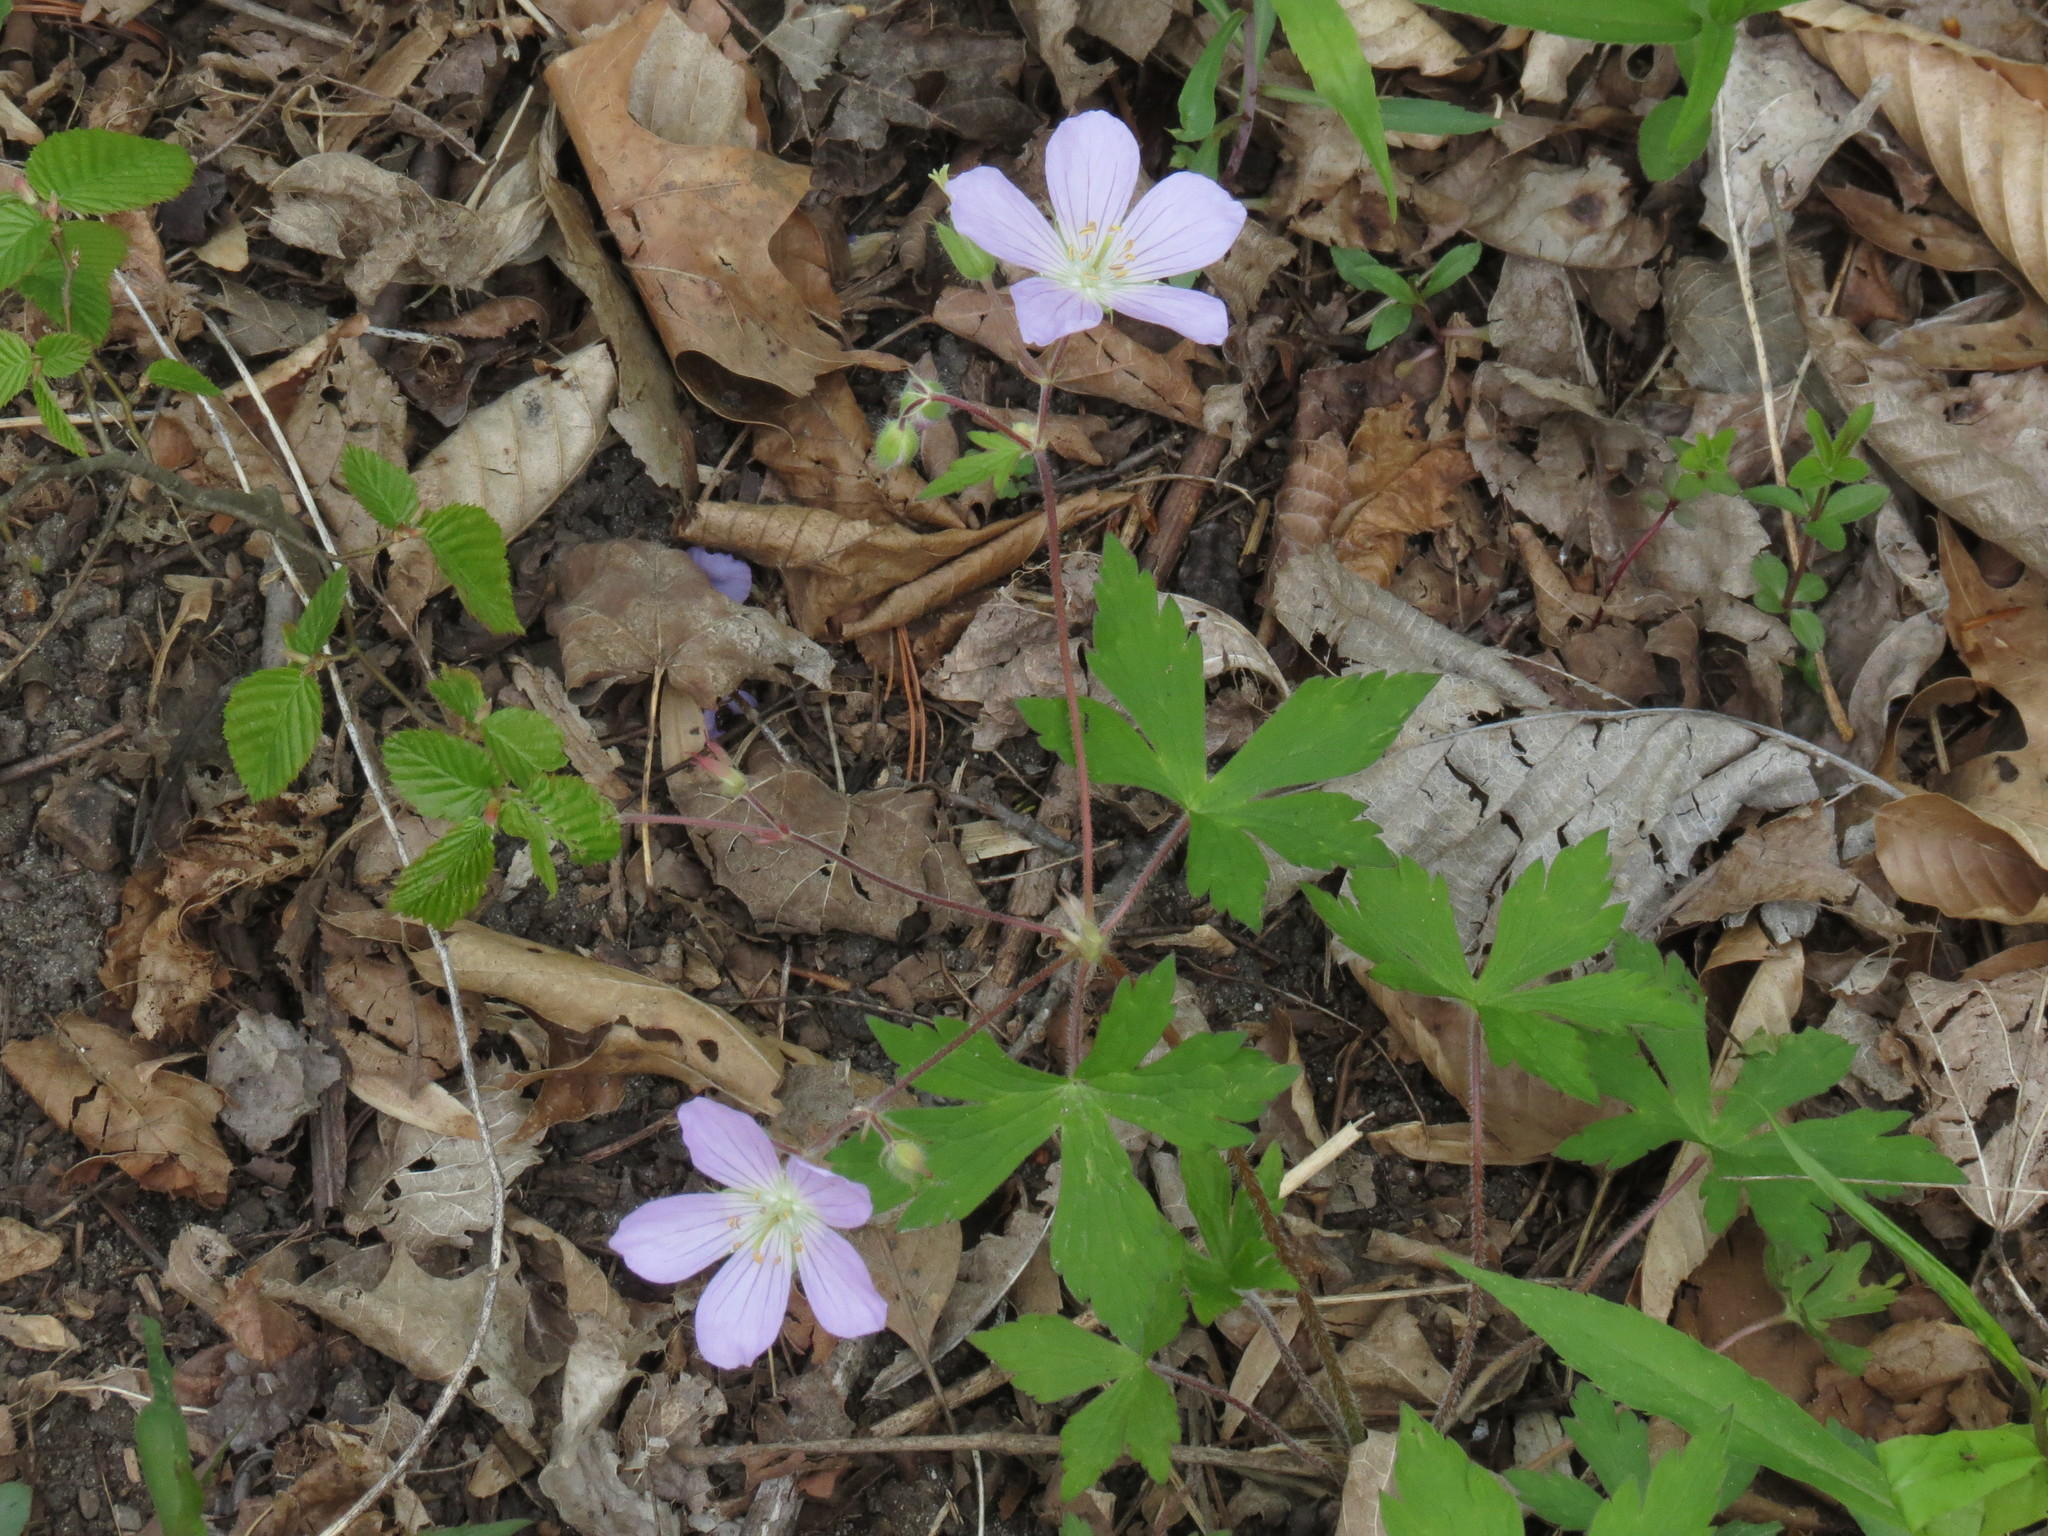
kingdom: Plantae
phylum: Tracheophyta
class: Magnoliopsida
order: Geraniales
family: Geraniaceae
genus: Geranium
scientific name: Geranium maculatum
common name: Spotted geranium
